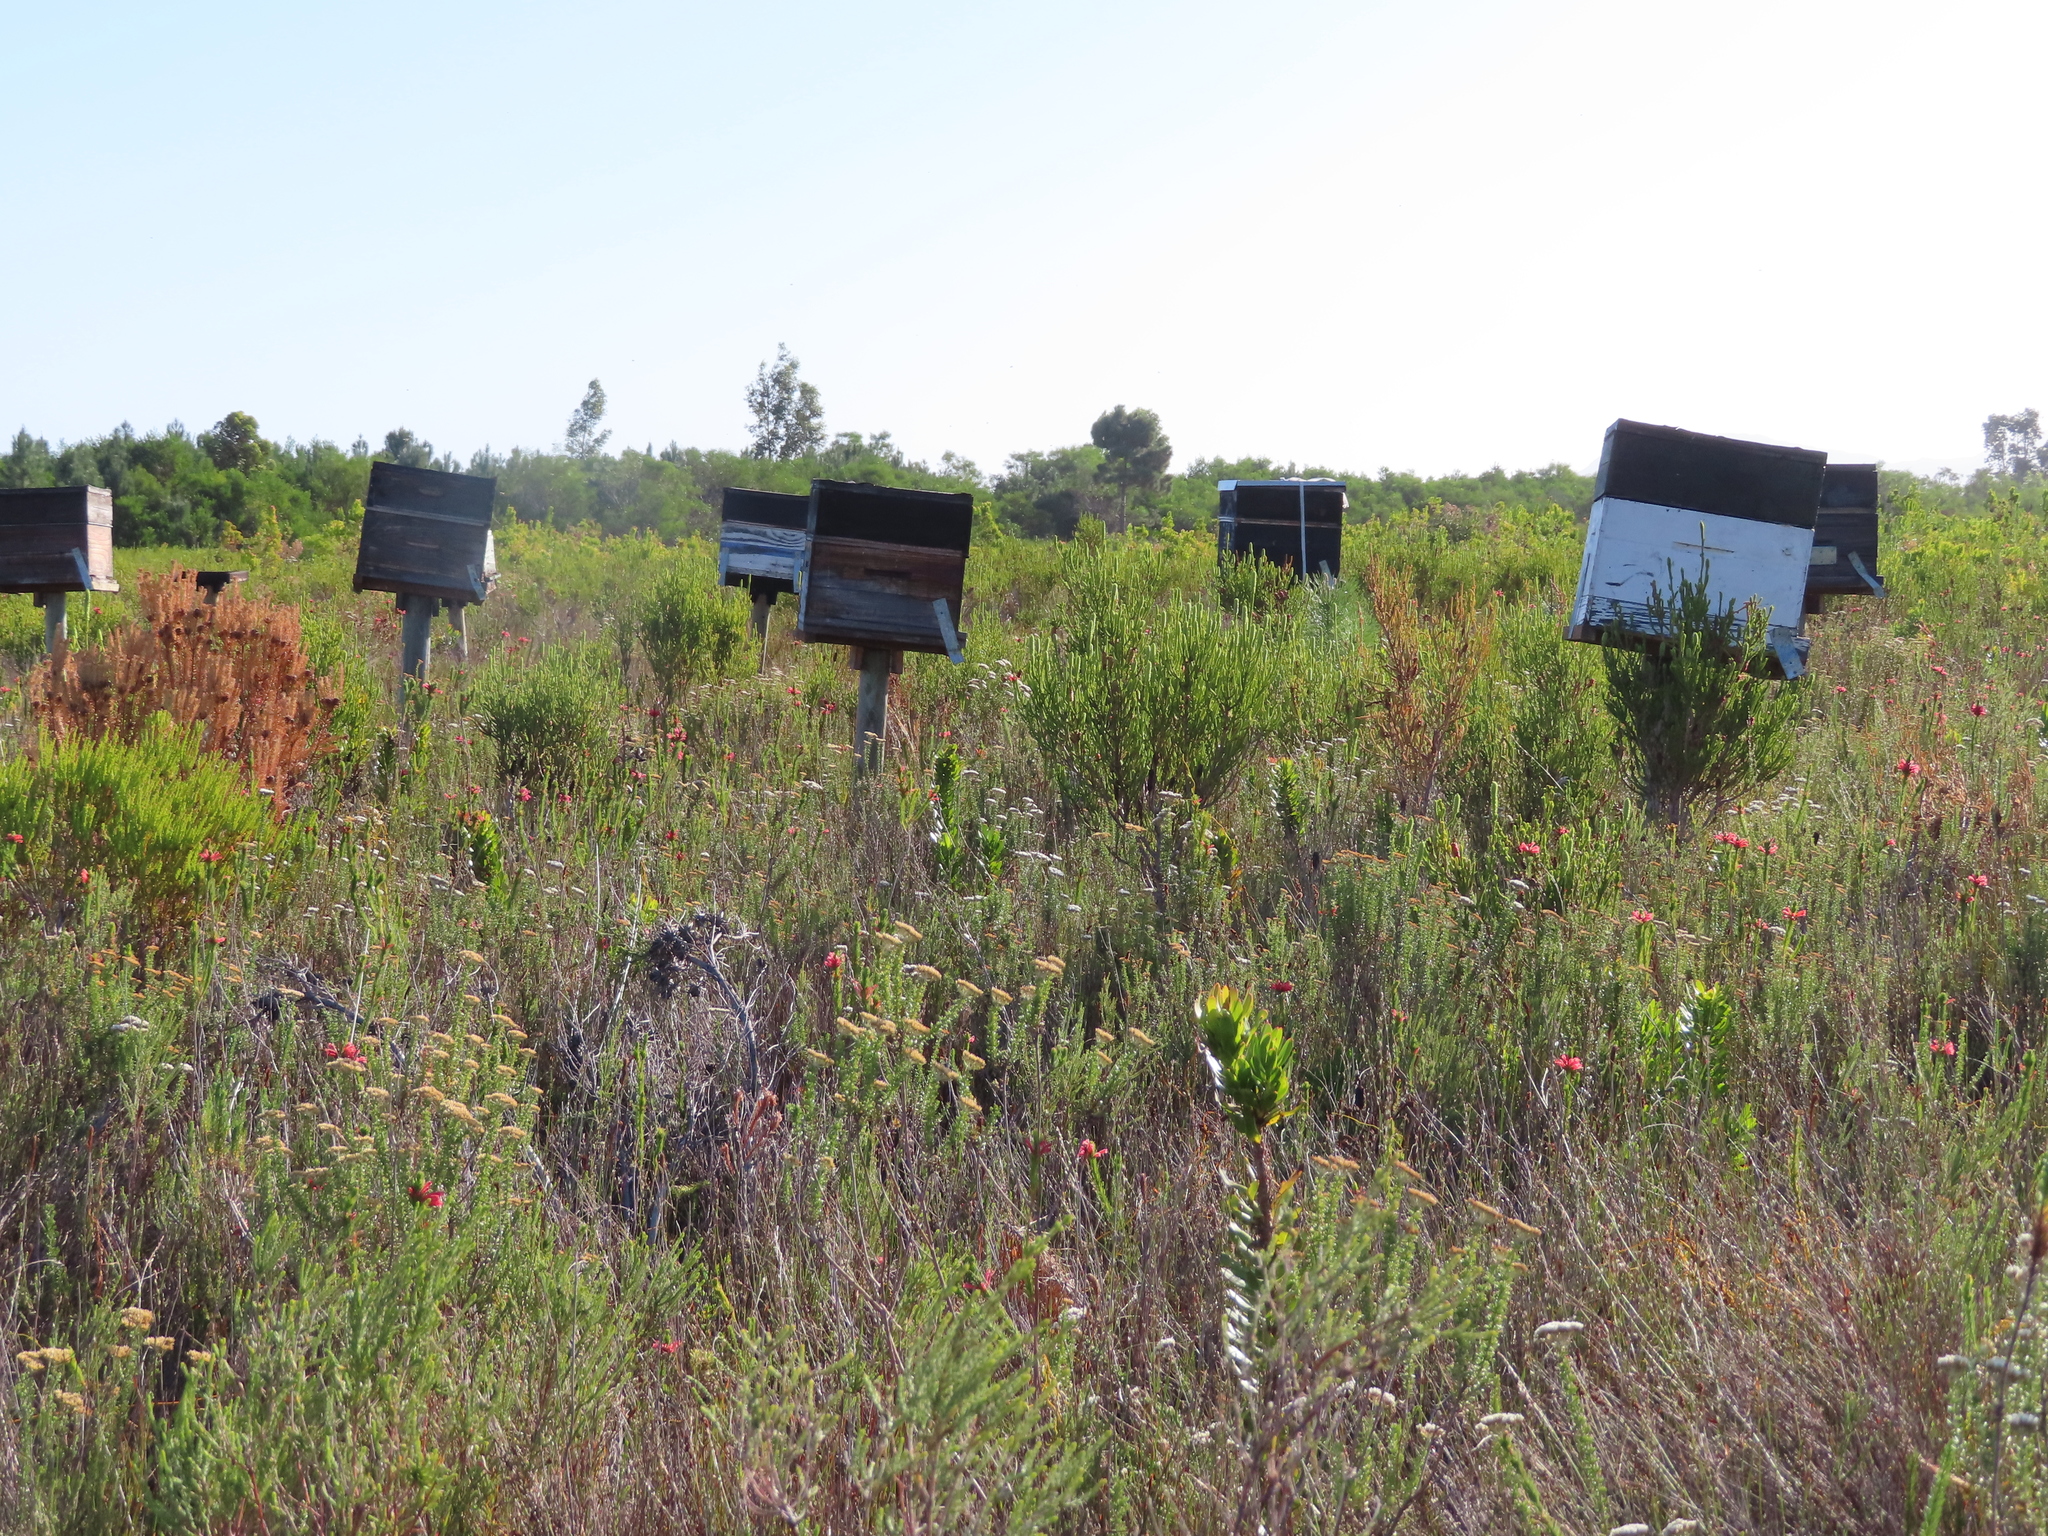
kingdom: Animalia
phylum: Arthropoda
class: Insecta
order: Hymenoptera
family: Apidae
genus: Apis
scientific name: Apis mellifera
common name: Honey bee
